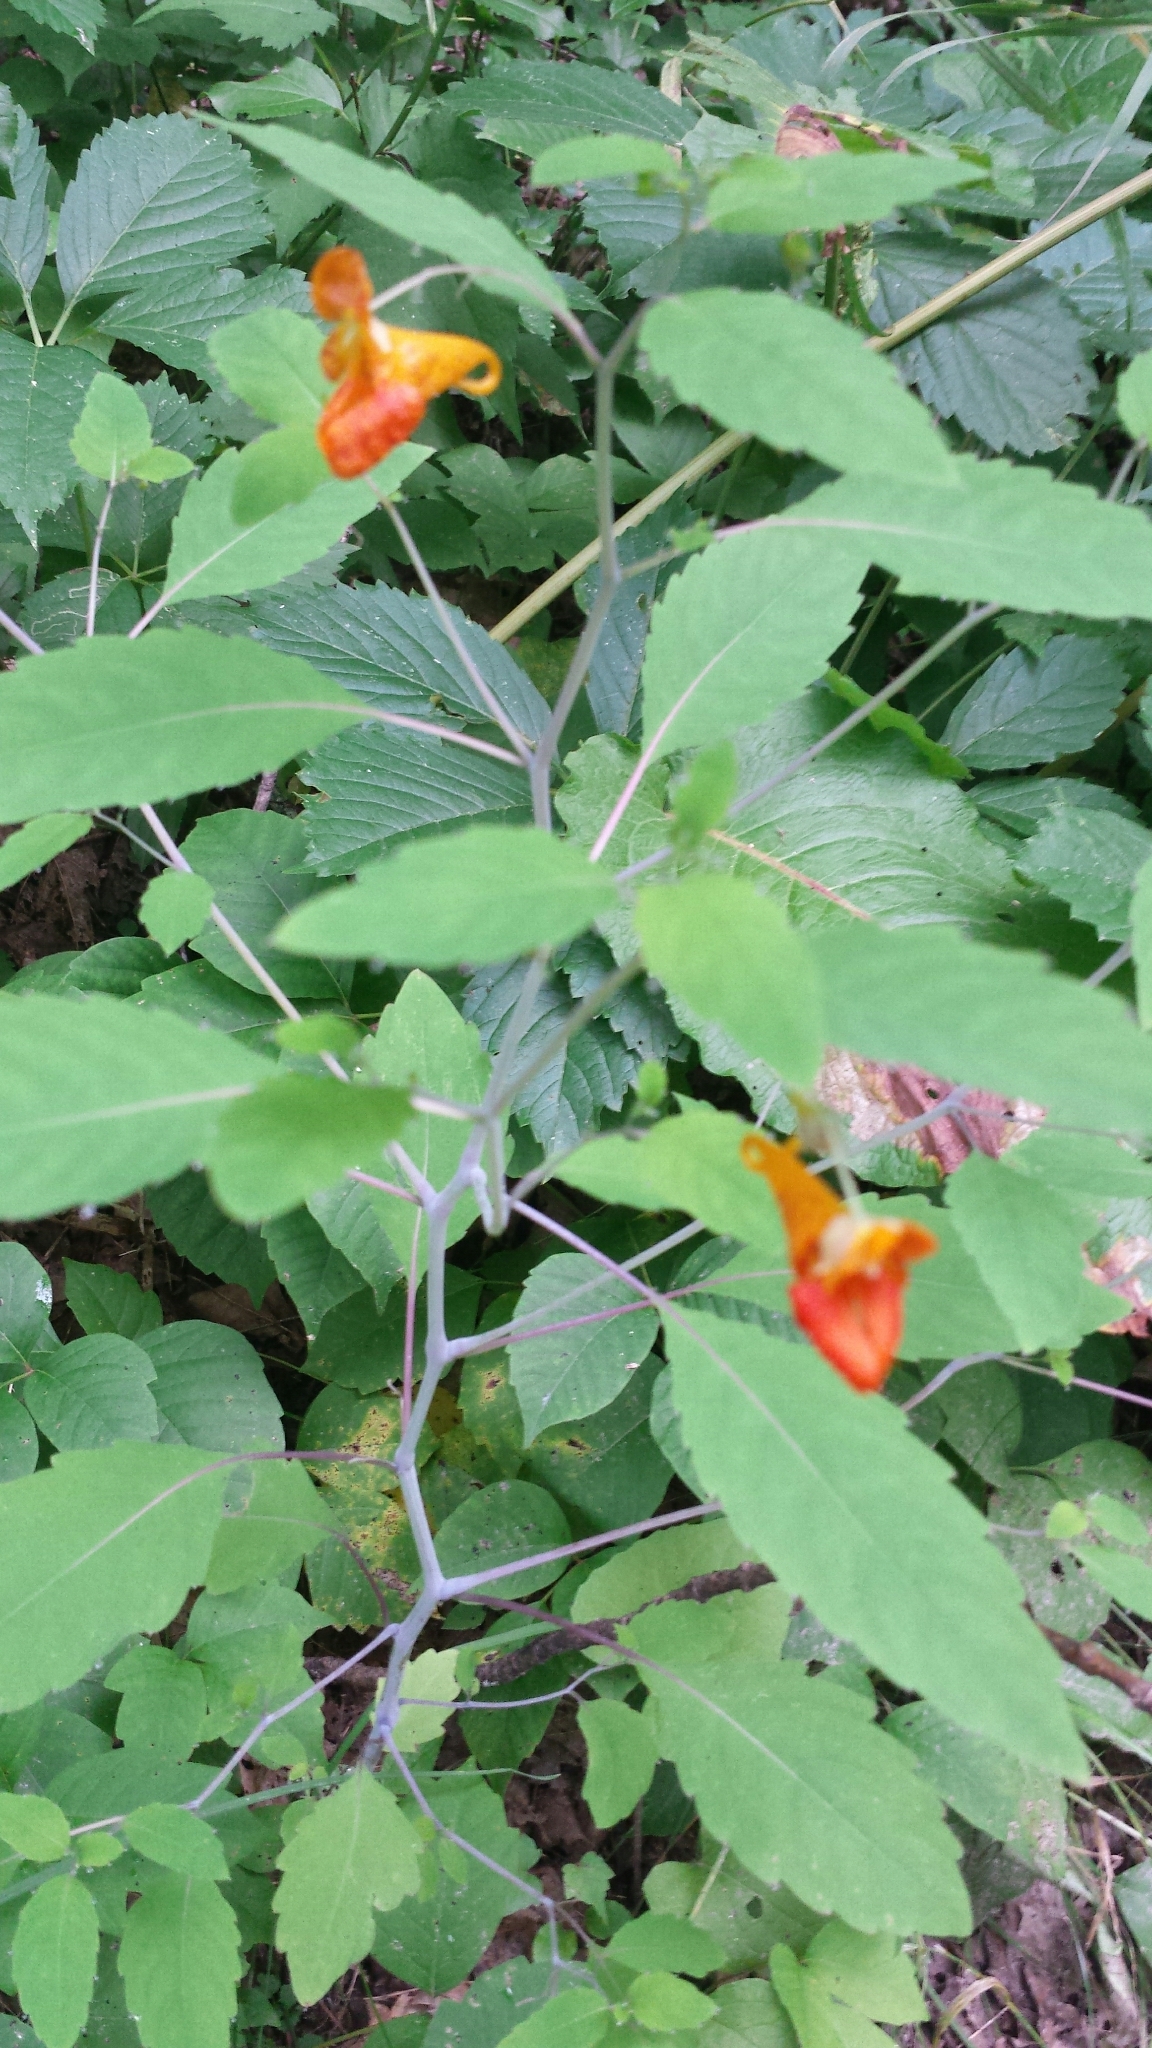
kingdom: Plantae
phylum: Tracheophyta
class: Magnoliopsida
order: Ericales
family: Balsaminaceae
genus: Impatiens
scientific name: Impatiens capensis
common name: Orange balsam
